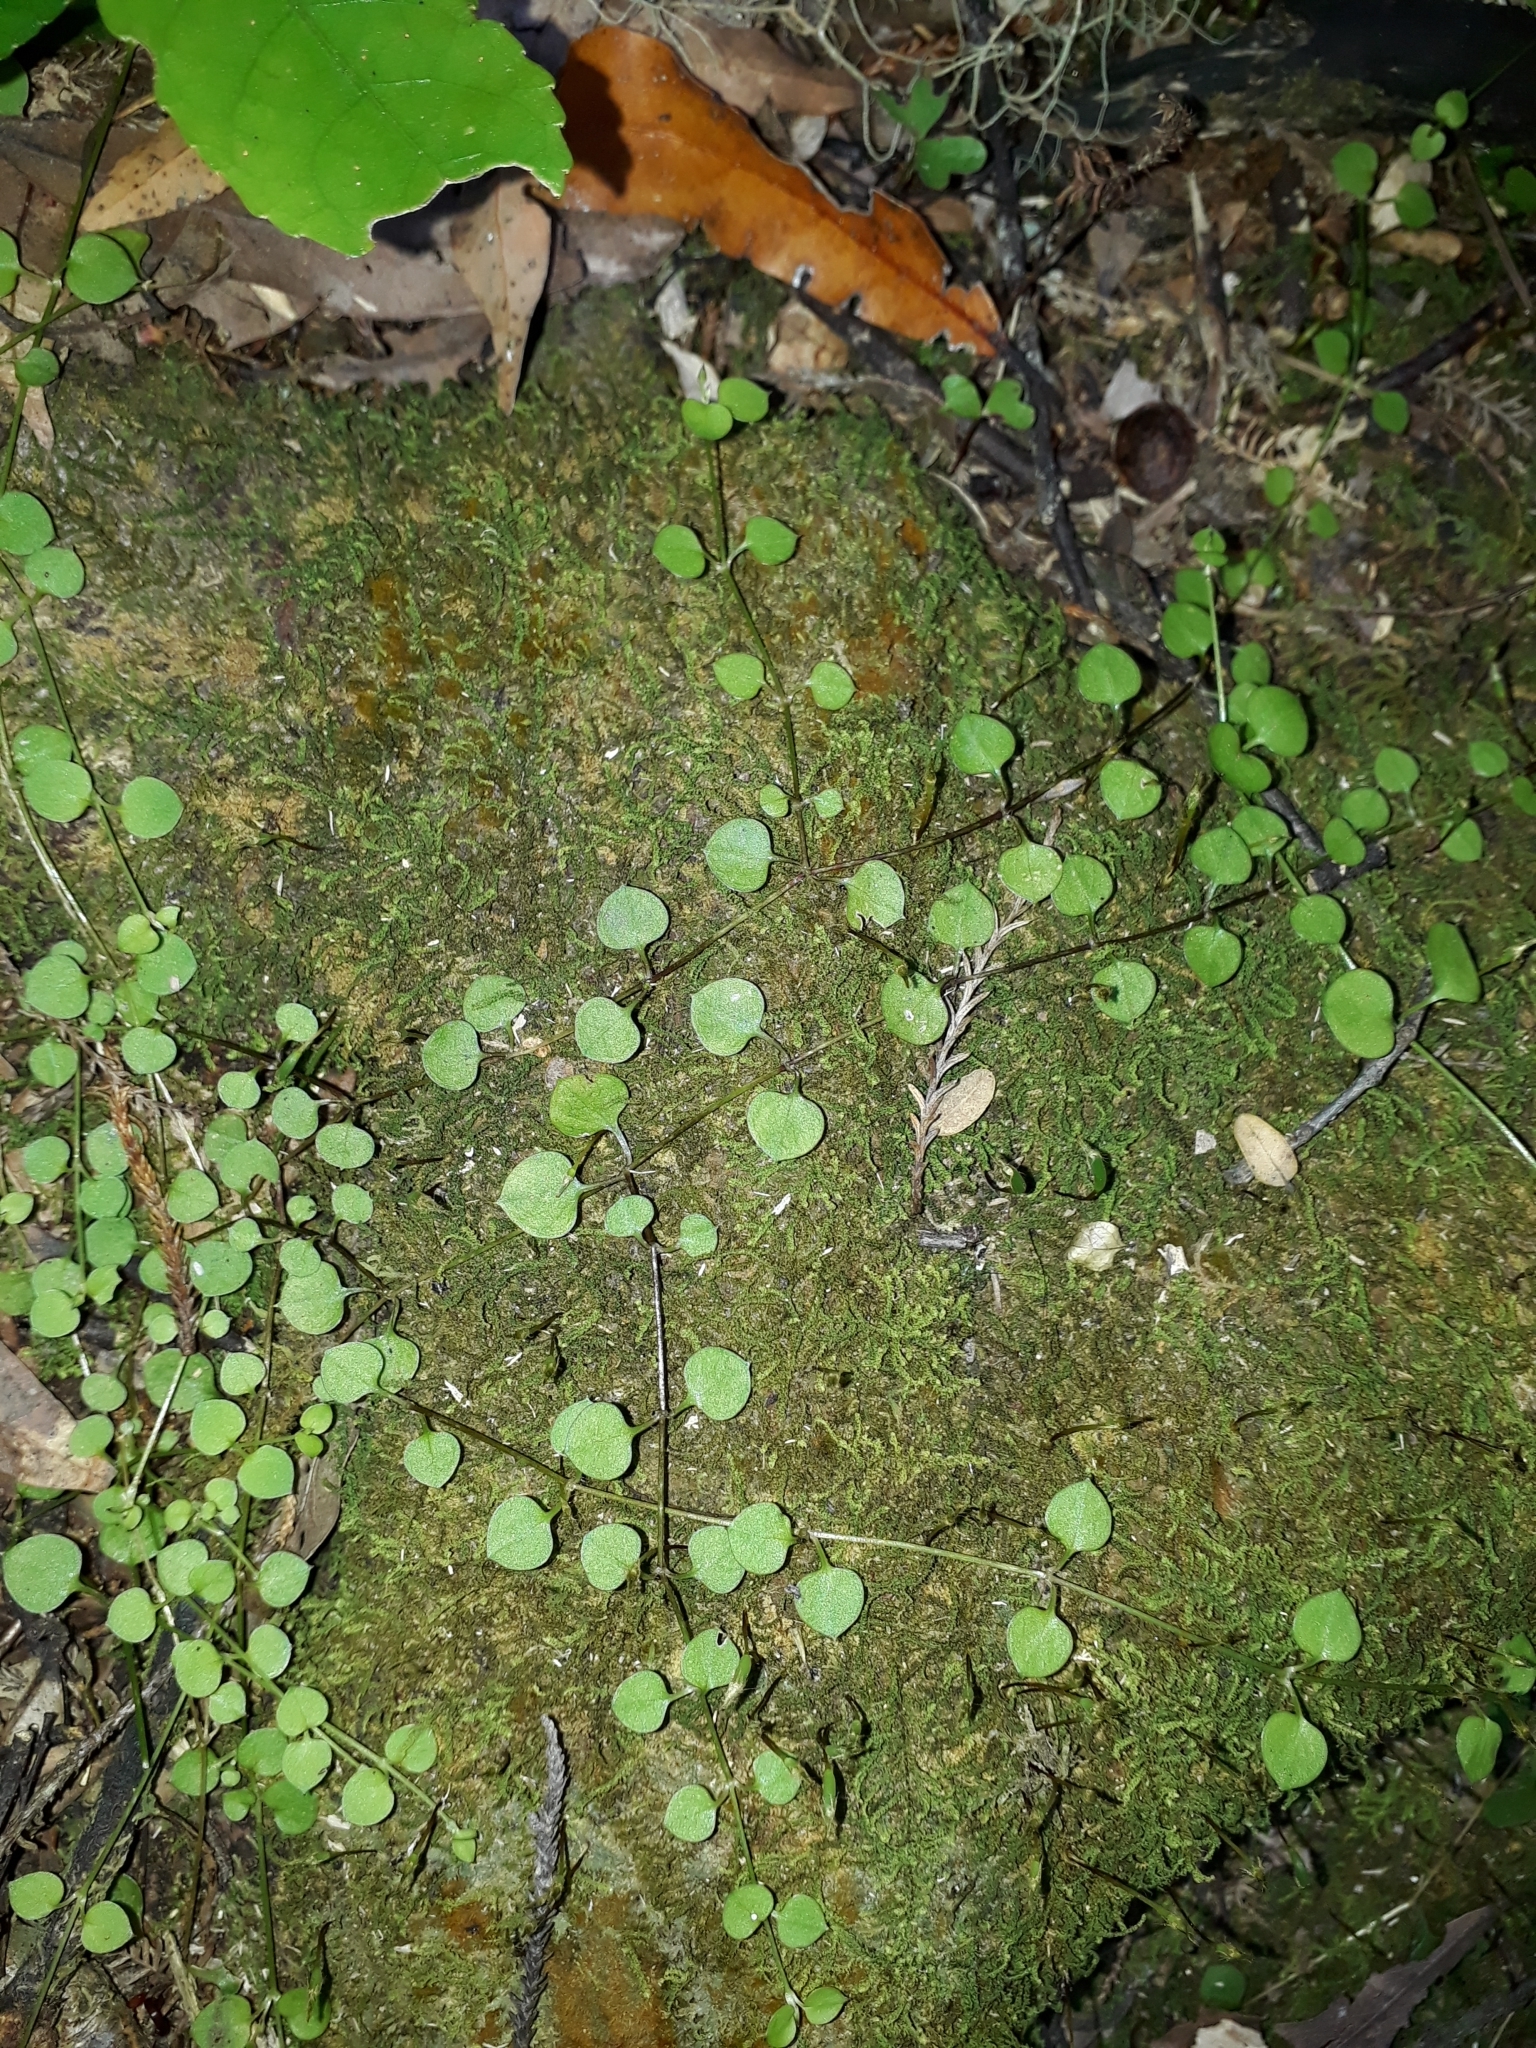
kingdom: Plantae
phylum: Tracheophyta
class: Magnoliopsida
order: Caryophyllales
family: Caryophyllaceae
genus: Stellaria
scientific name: Stellaria parviflora
